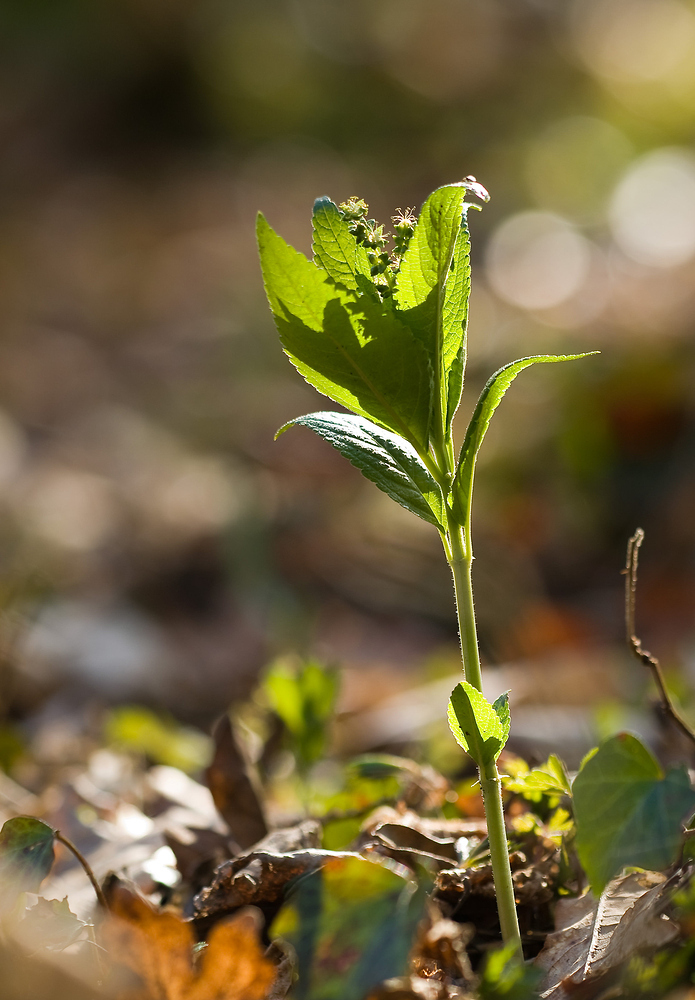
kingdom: Plantae
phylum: Tracheophyta
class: Magnoliopsida
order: Malpighiales
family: Euphorbiaceae
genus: Mercurialis
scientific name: Mercurialis perennis
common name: Dog mercury
